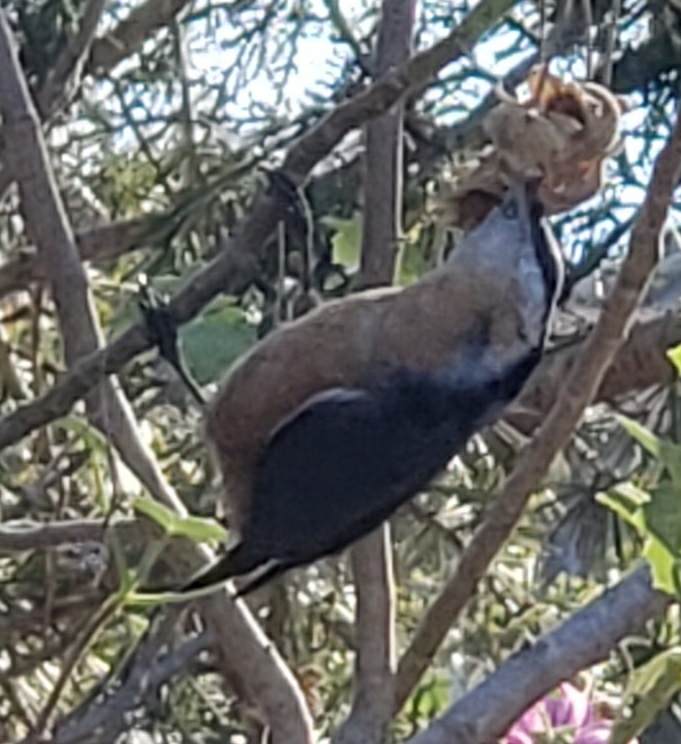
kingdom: Animalia
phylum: Chordata
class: Aves
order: Passeriformes
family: Sittidae
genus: Sitta
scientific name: Sitta canadensis
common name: Red-breasted nuthatch
